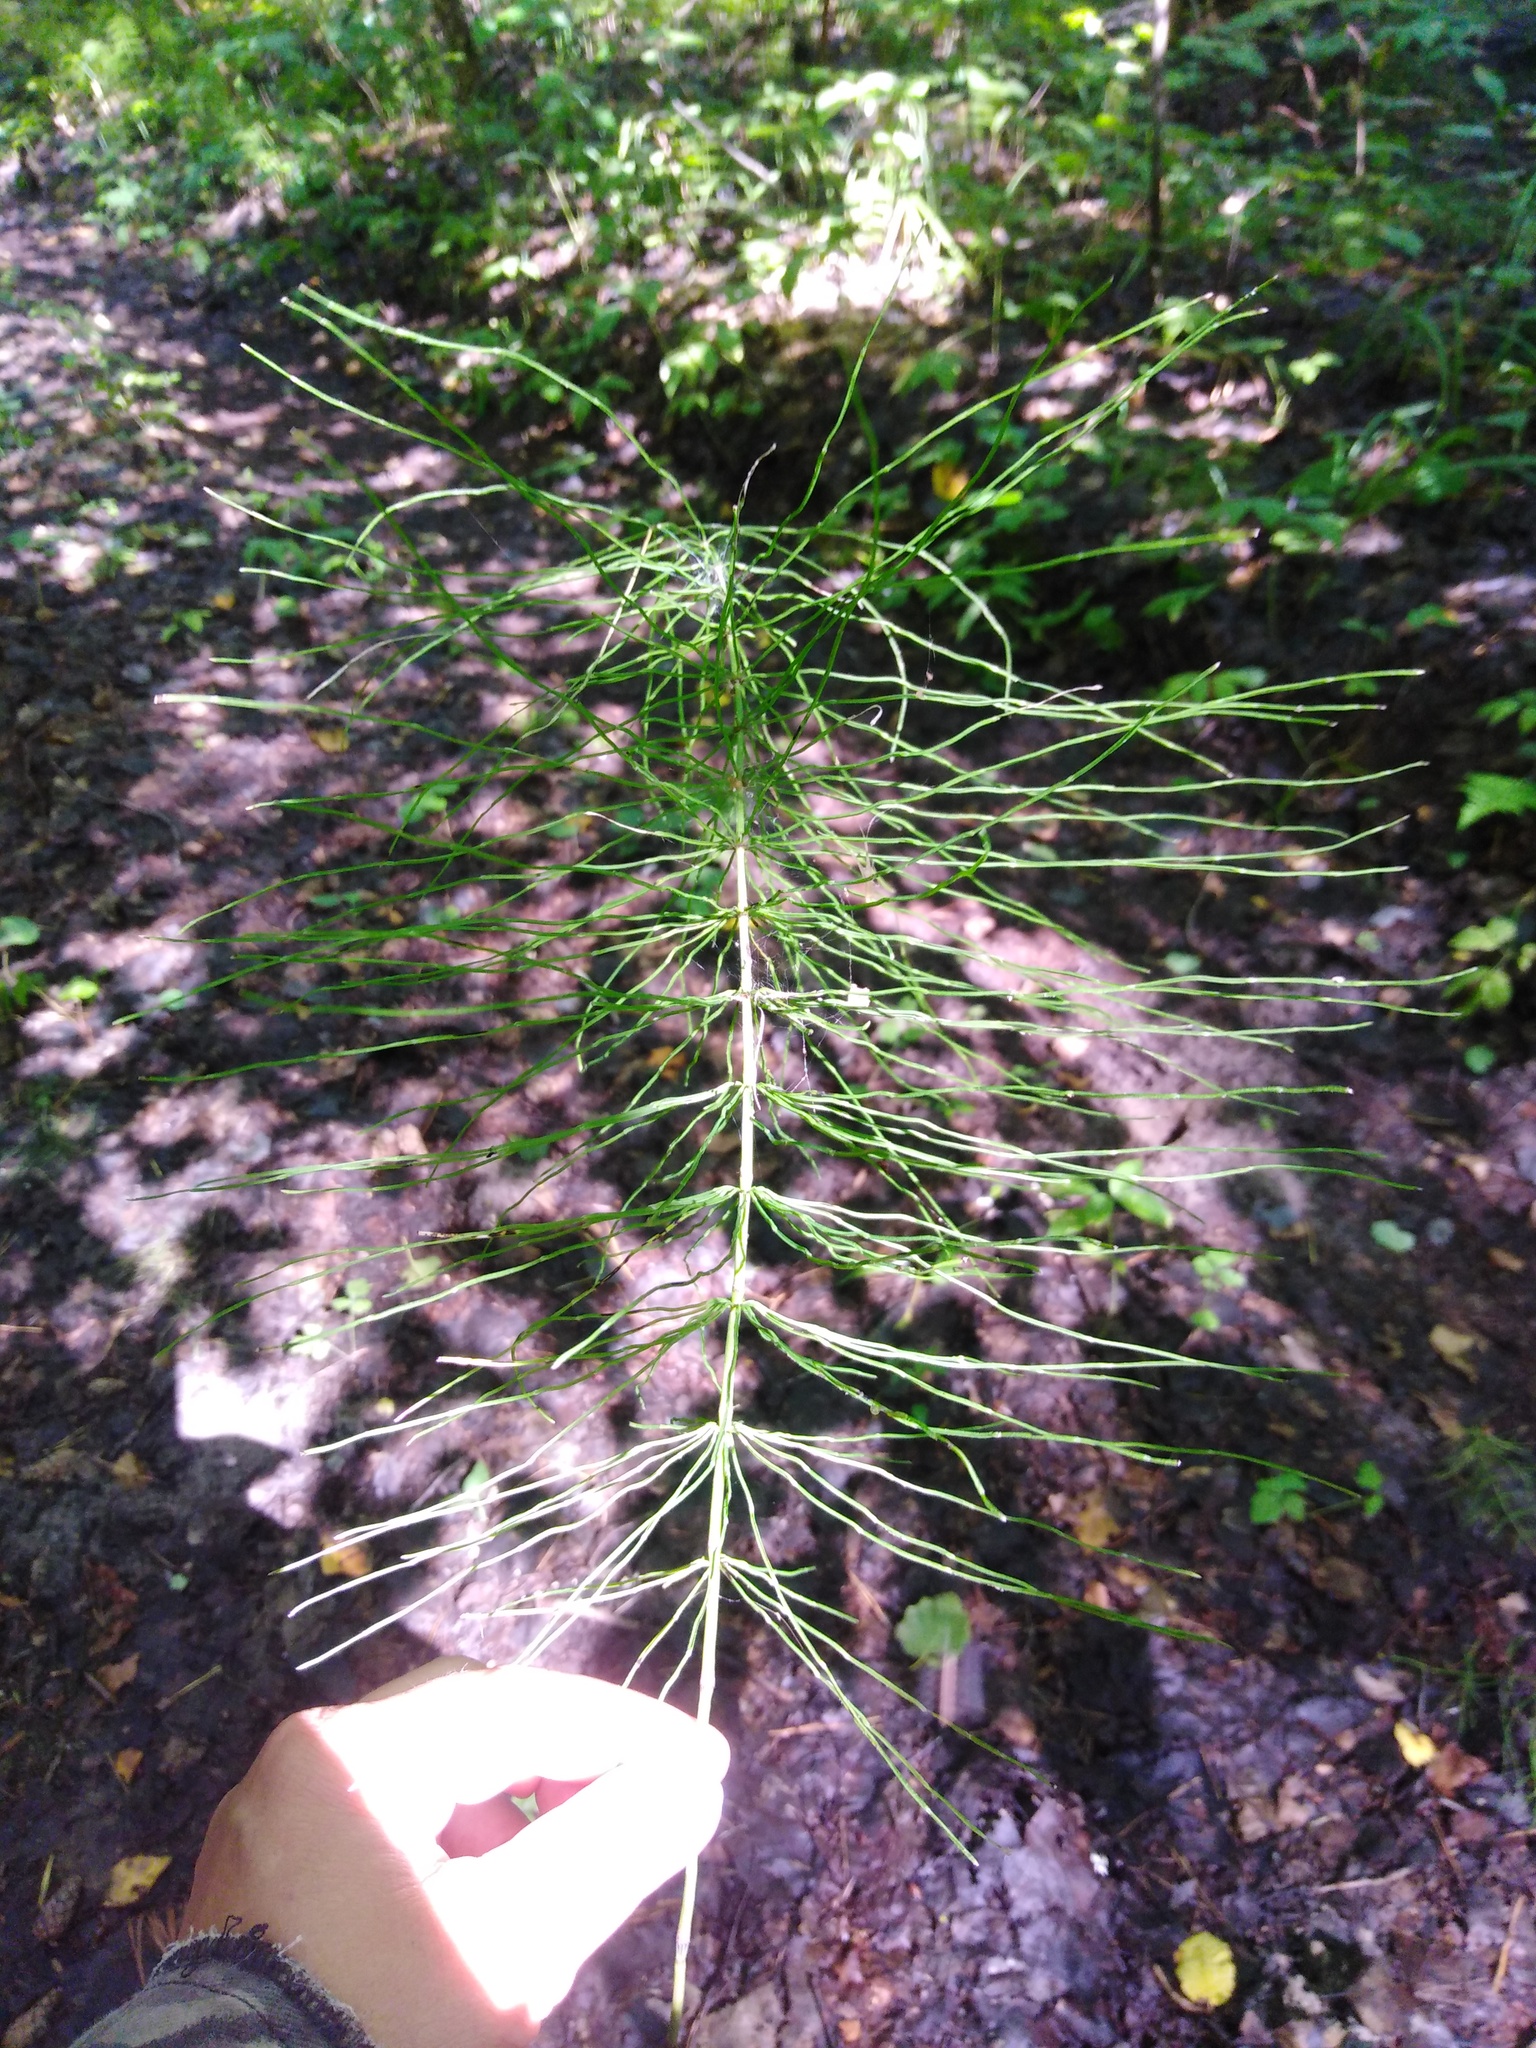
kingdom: Plantae
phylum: Tracheophyta
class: Polypodiopsida
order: Equisetales
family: Equisetaceae
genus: Equisetum
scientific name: Equisetum pratense
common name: Meadow horsetail
